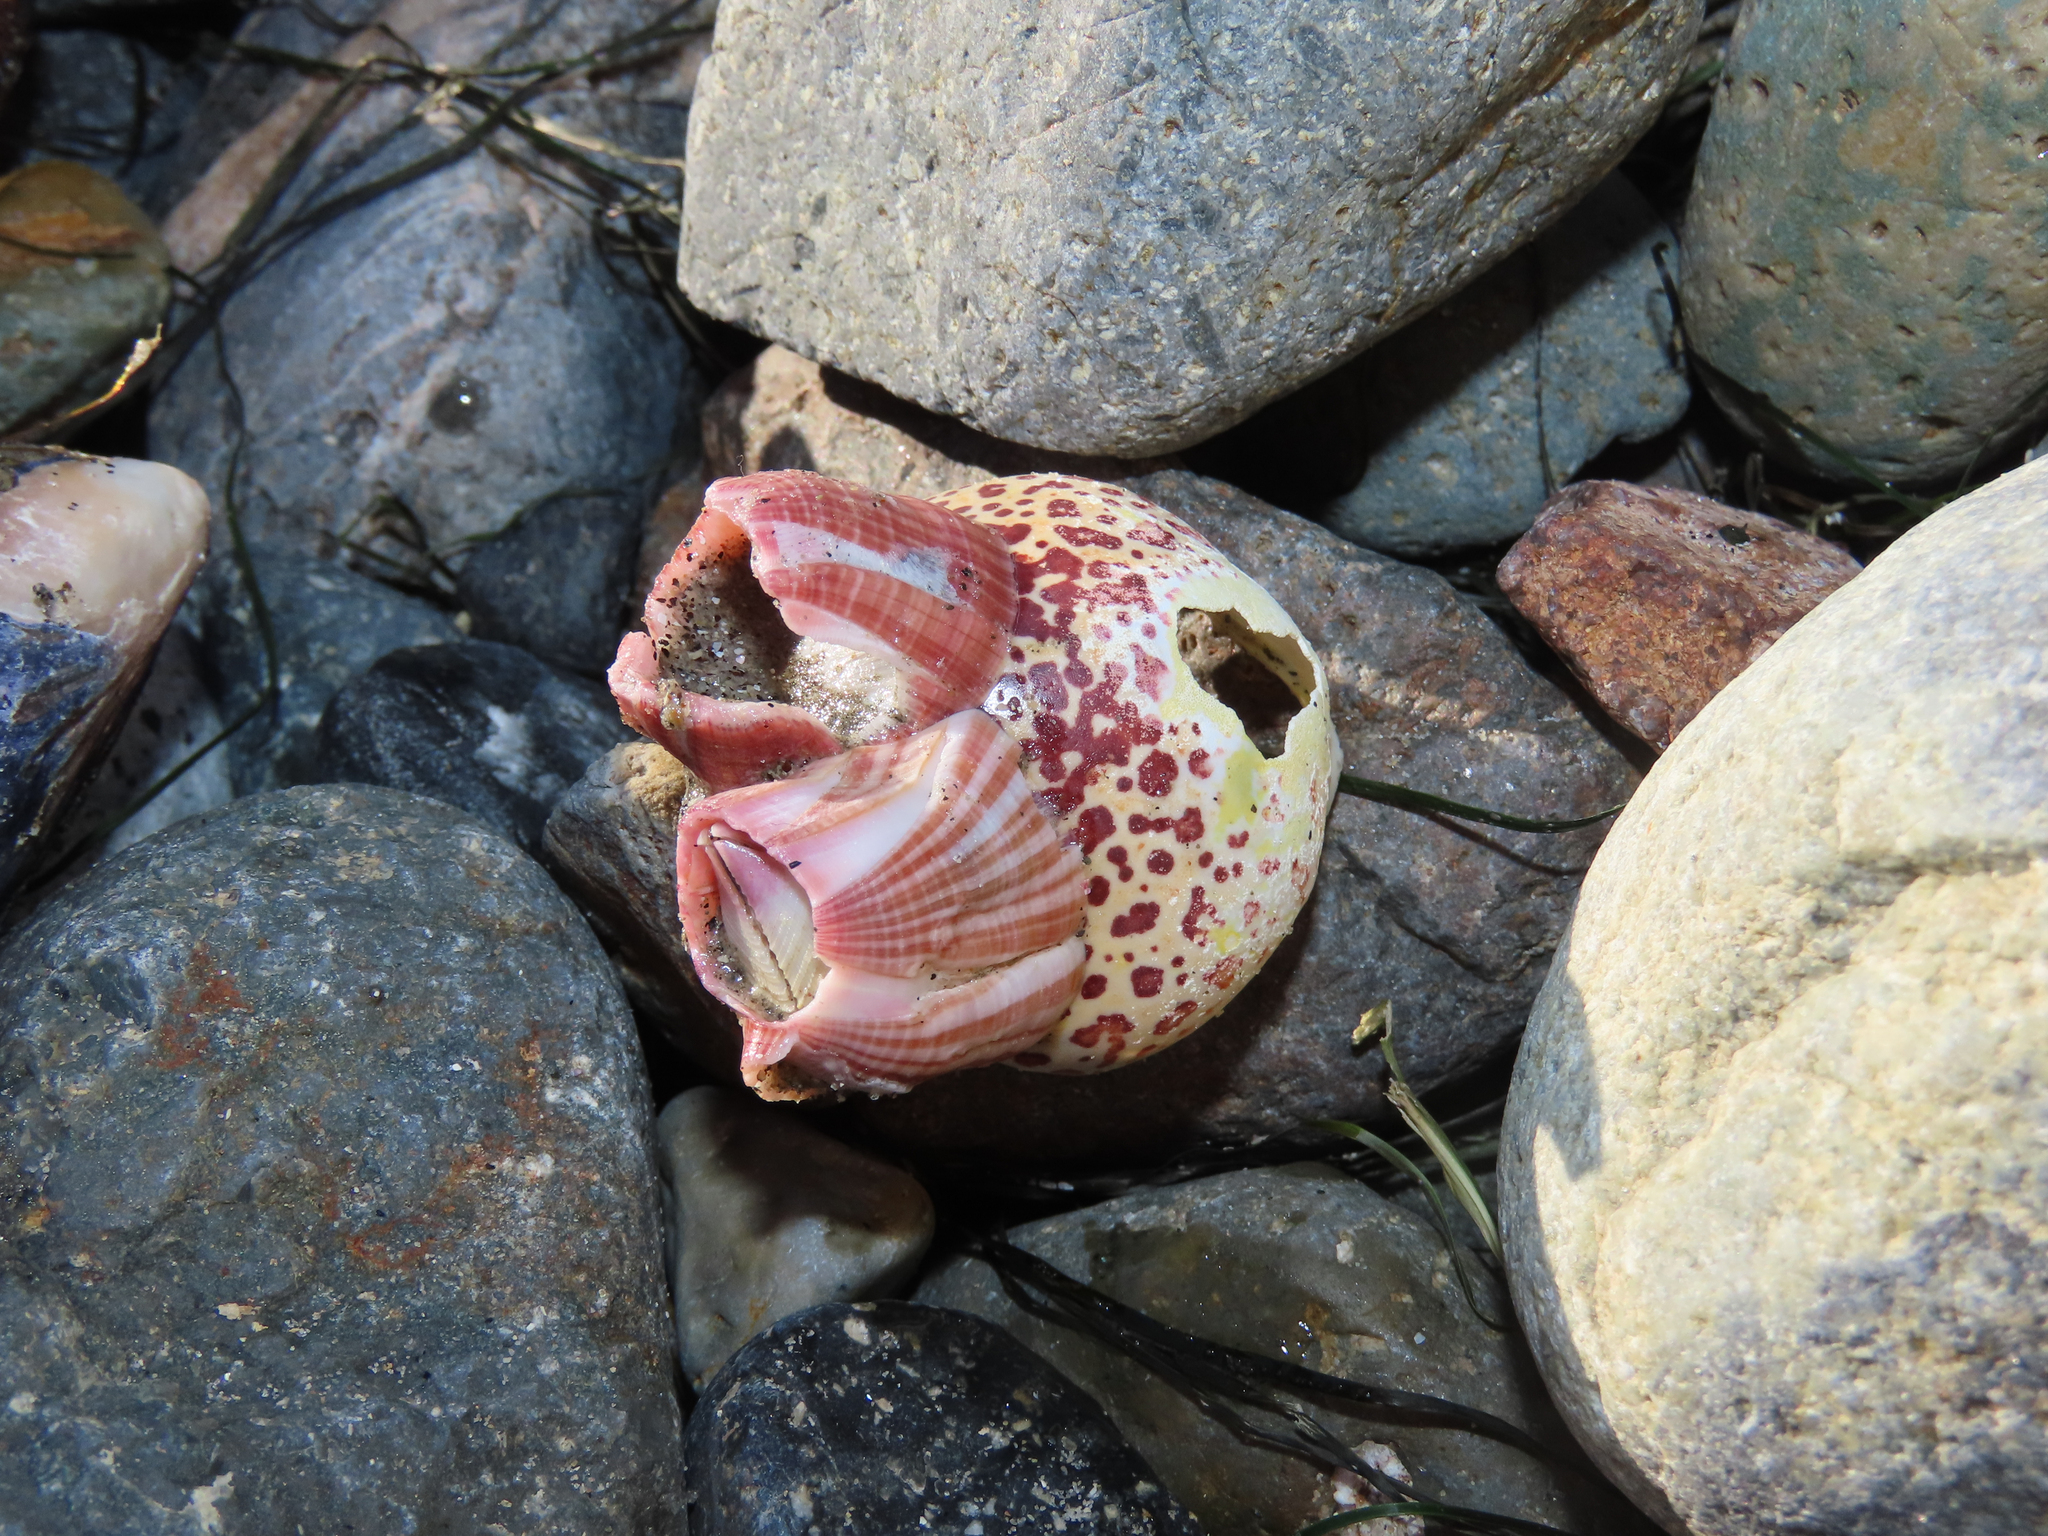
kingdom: Animalia
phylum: Arthropoda
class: Maxillopoda
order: Sessilia
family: Balanidae
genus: Paraconcavus
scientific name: Paraconcavus pacificus
